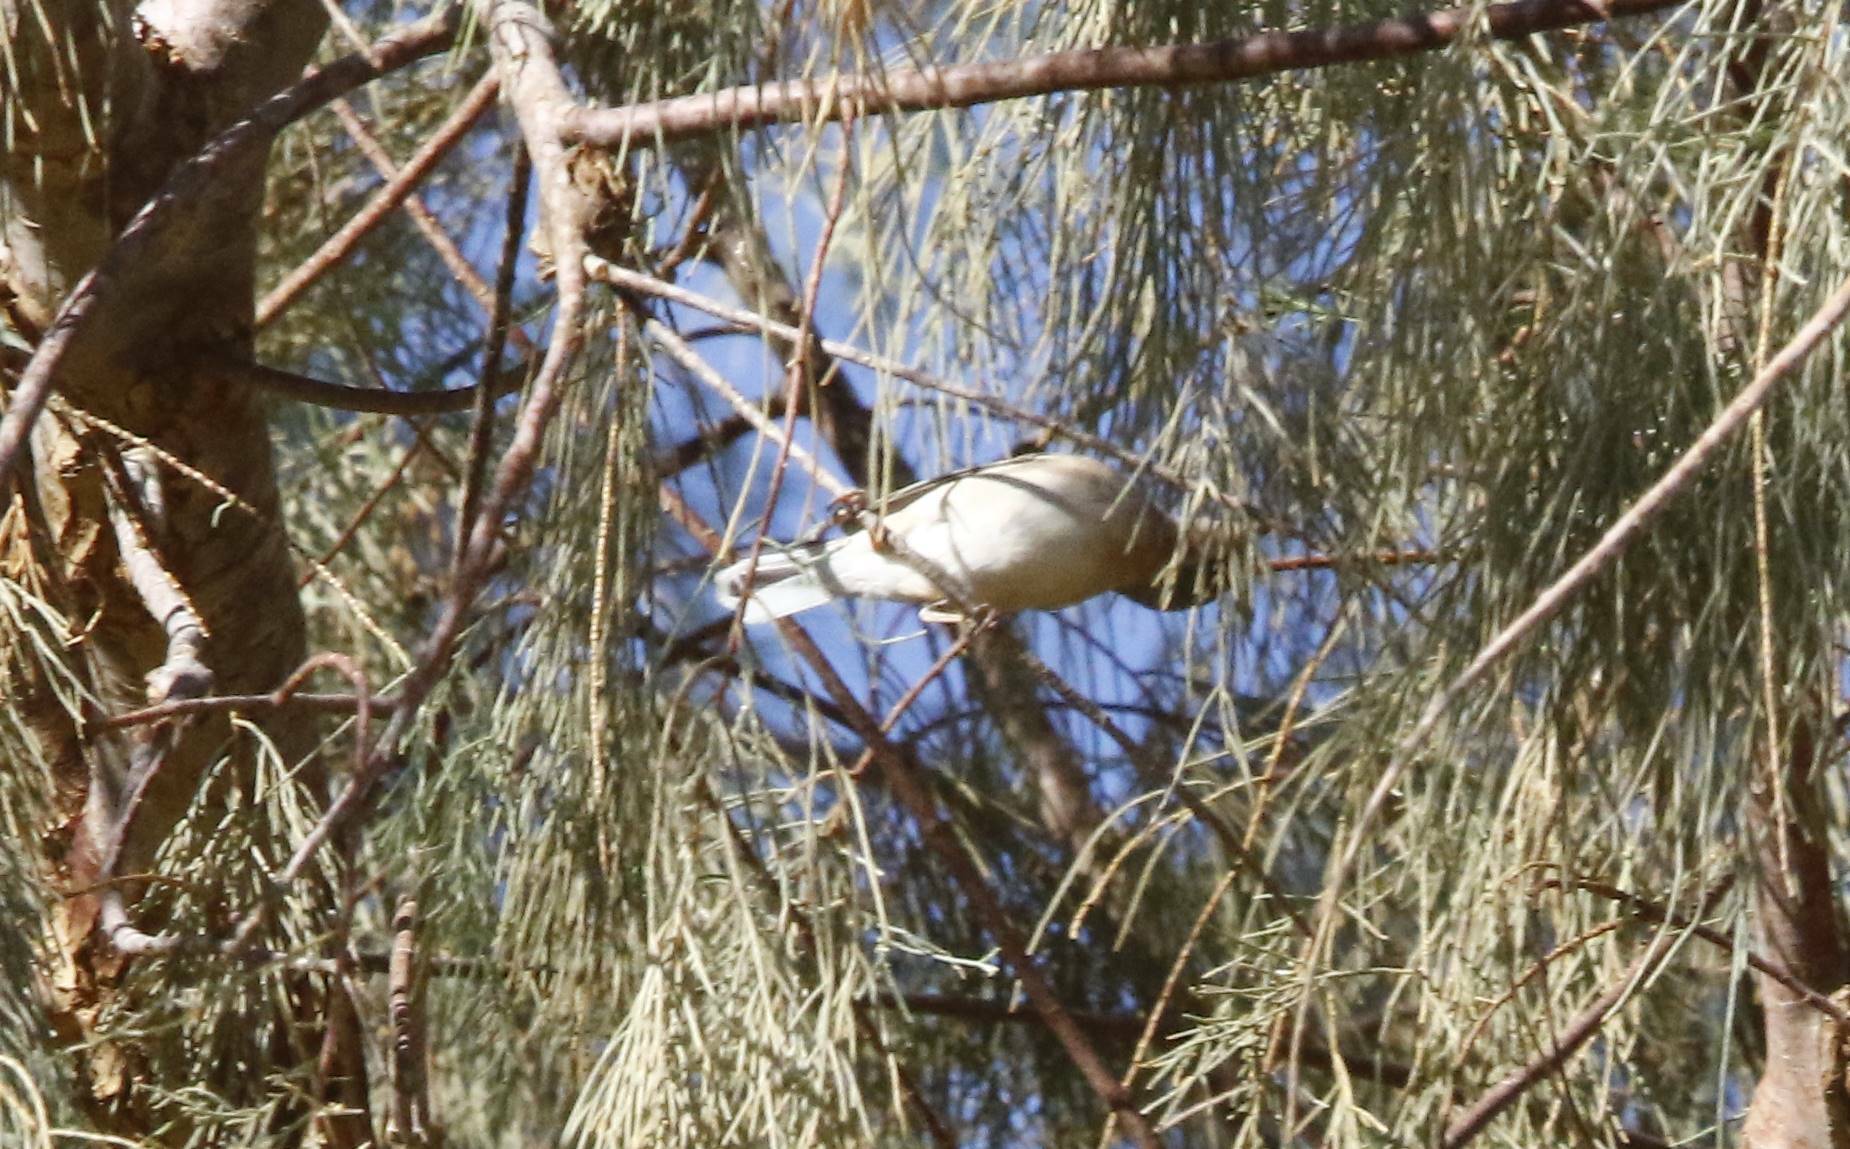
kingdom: Animalia
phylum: Chordata
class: Aves
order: Passeriformes
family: Sylviidae
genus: Curruca
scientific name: Curruca subalpina
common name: Moltoni's warbler
